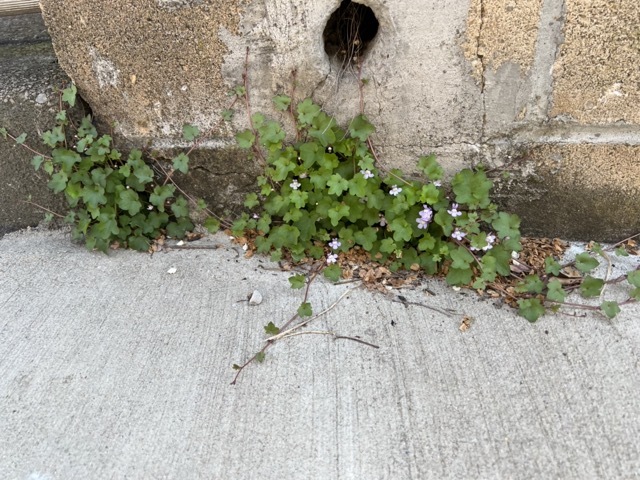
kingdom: Plantae
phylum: Tracheophyta
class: Magnoliopsida
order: Lamiales
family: Plantaginaceae
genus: Cymbalaria
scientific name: Cymbalaria muralis
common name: Ivy-leaved toadflax
